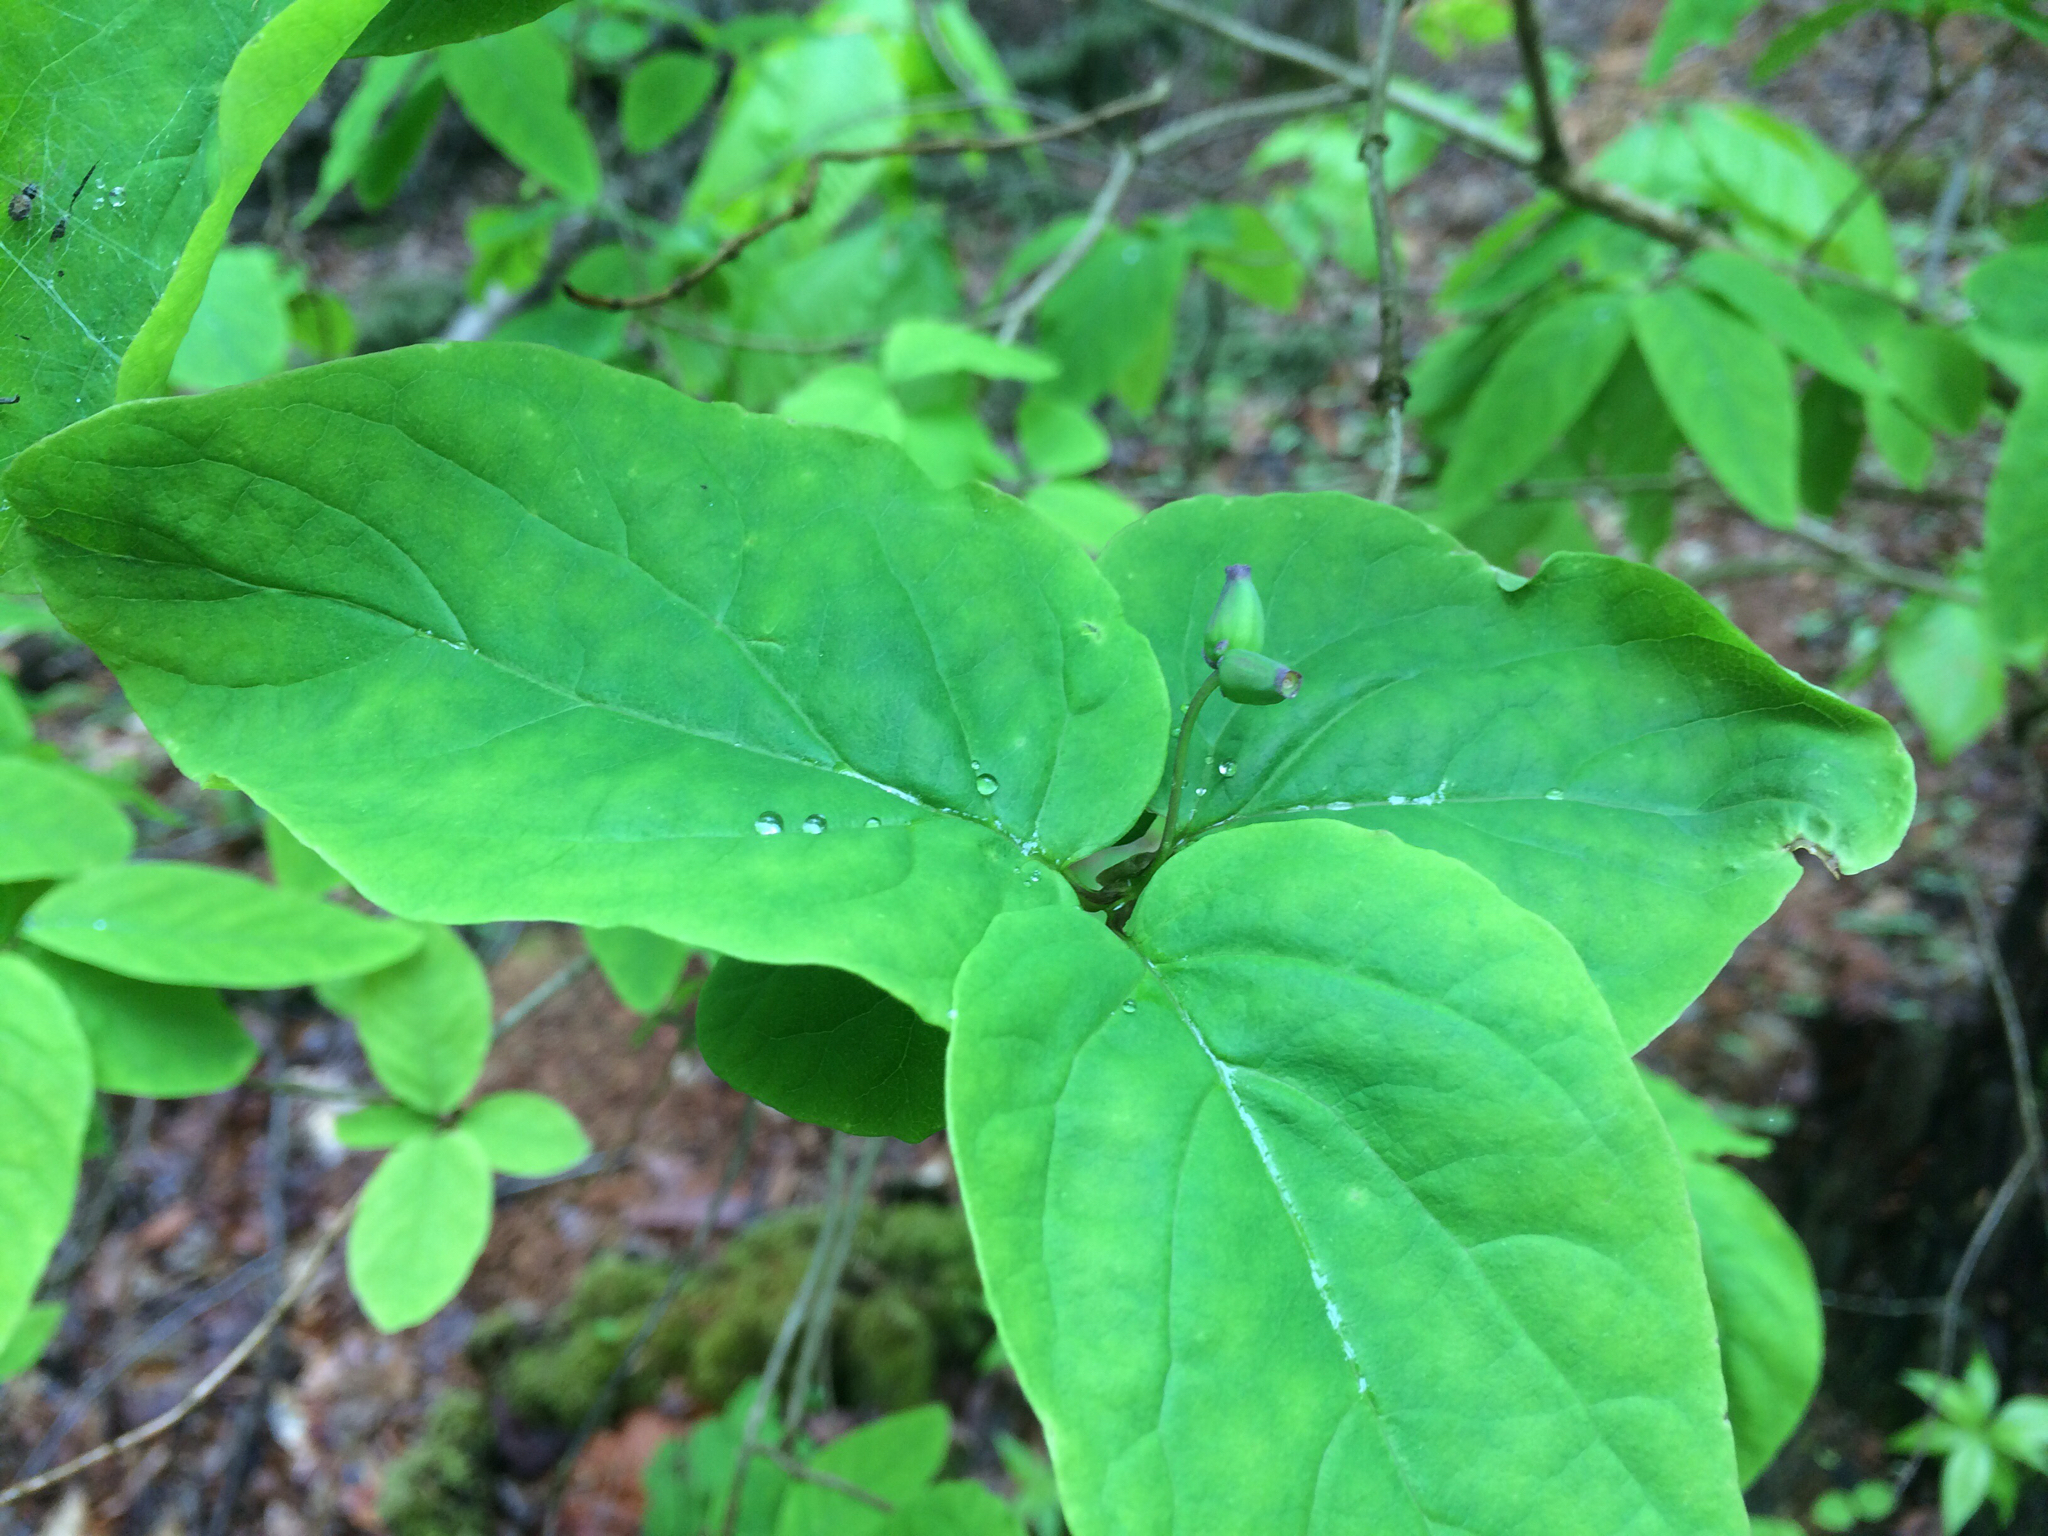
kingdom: Plantae
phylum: Tracheophyta
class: Magnoliopsida
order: Dipsacales
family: Caprifoliaceae
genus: Lonicera
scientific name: Lonicera canadensis
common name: American fly-honeysuckle
